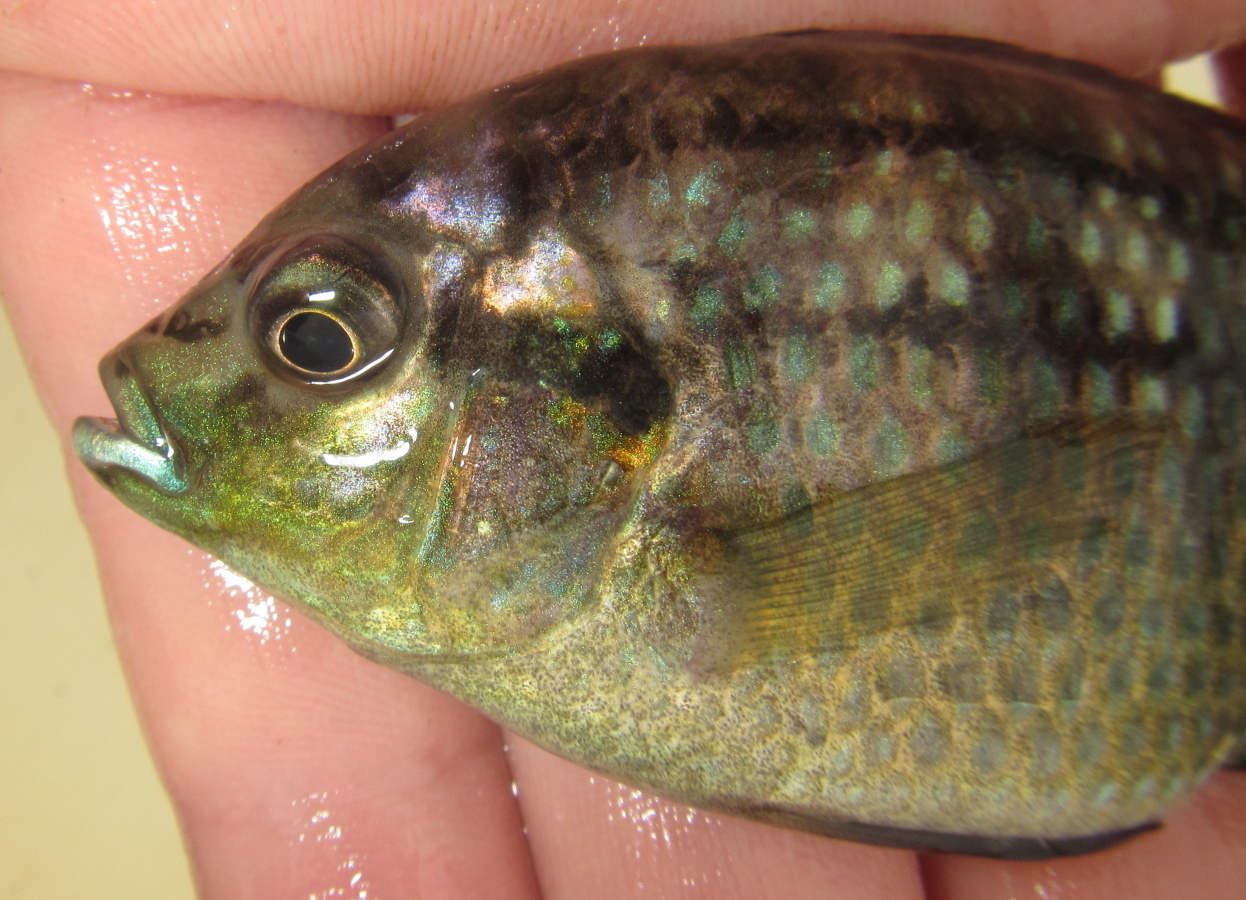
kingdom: Animalia
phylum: Chordata
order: Perciformes
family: Cichlidae
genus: Tilapia
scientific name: Tilapia sparrmanii
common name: Banded tilapia
